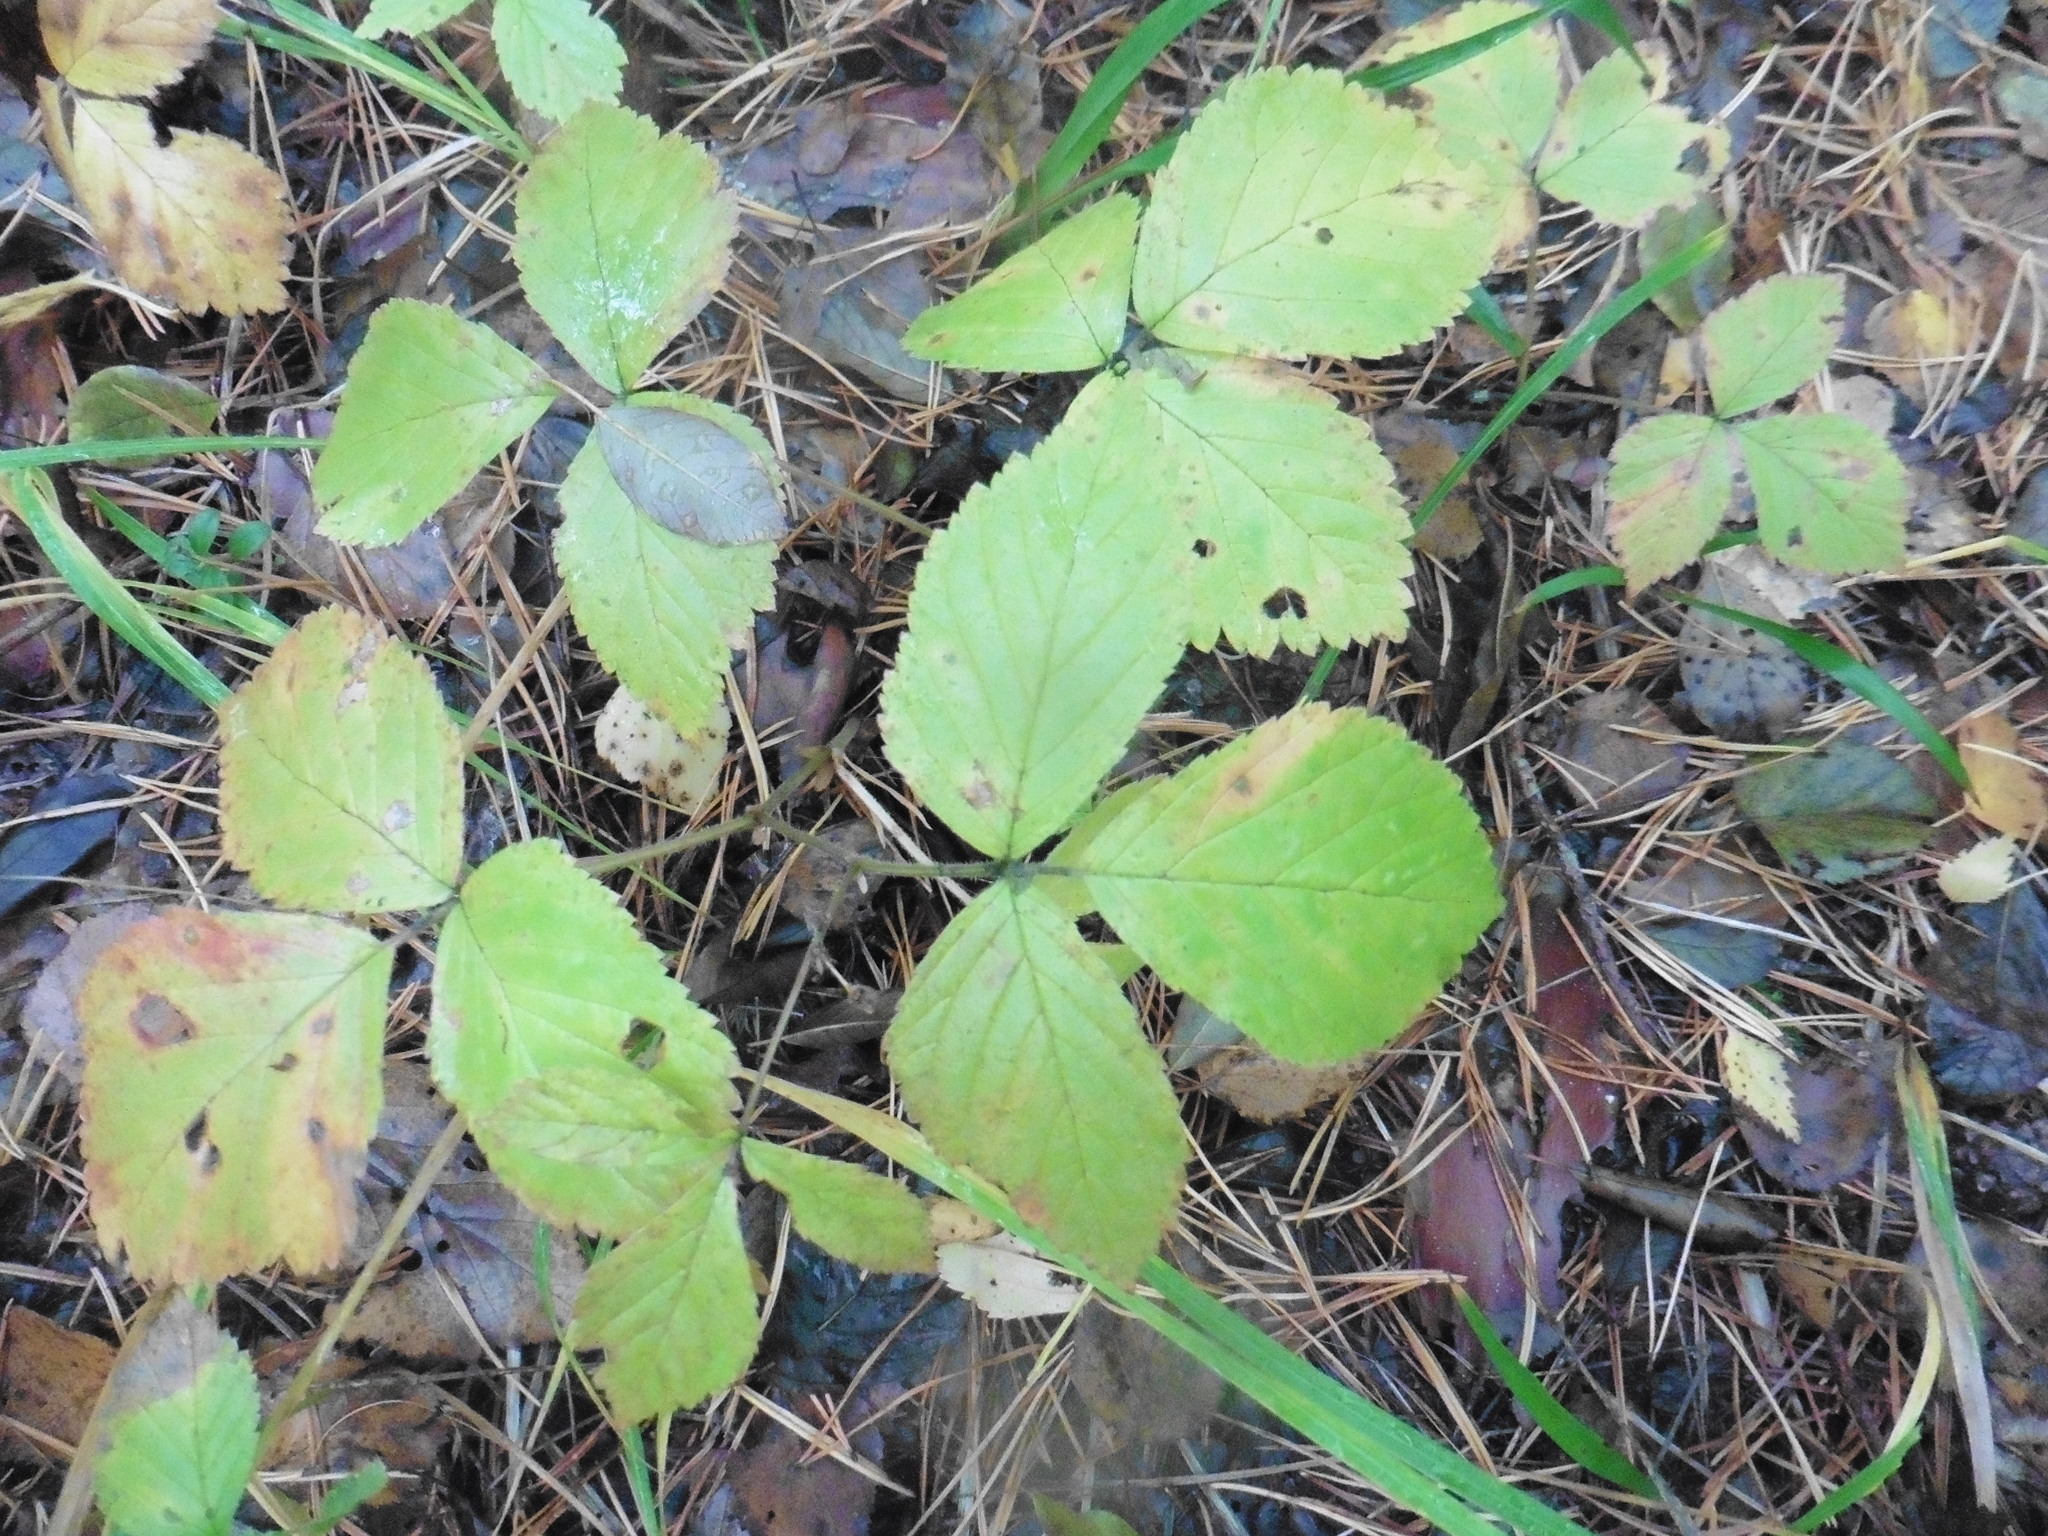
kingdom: Plantae
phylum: Tracheophyta
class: Magnoliopsida
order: Rosales
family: Rosaceae
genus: Rubus
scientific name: Rubus saxatilis
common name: Stone bramble
